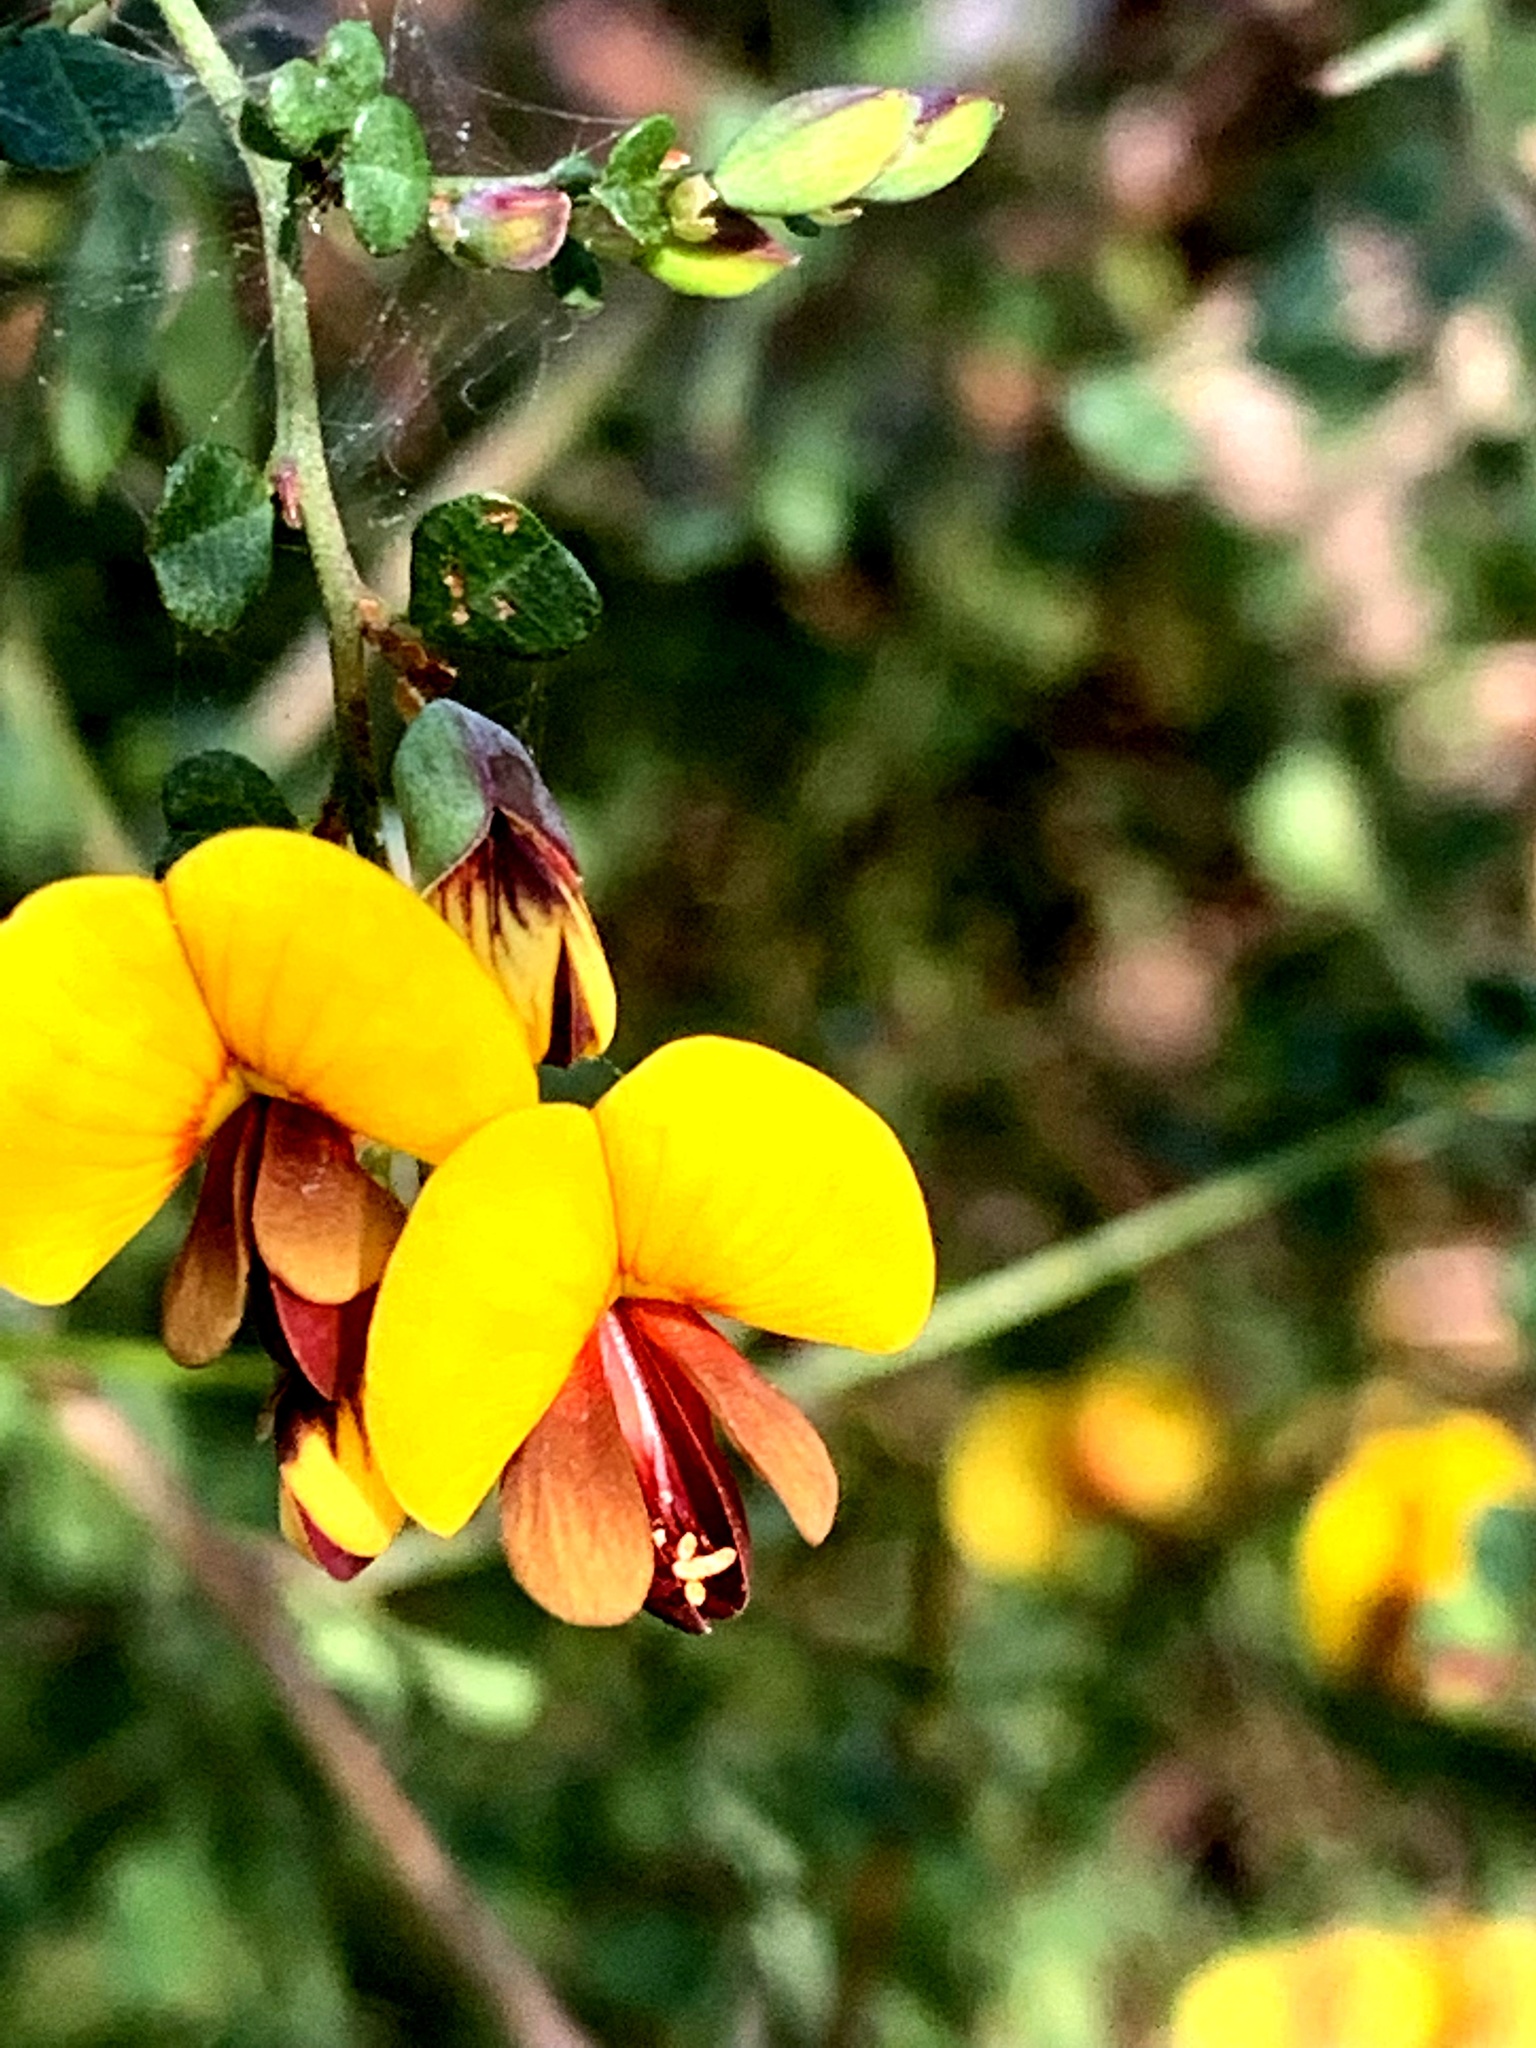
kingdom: Plantae
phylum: Tracheophyta
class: Magnoliopsida
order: Fabales
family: Fabaceae
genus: Bossiaea
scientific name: Bossiaea obcordata
